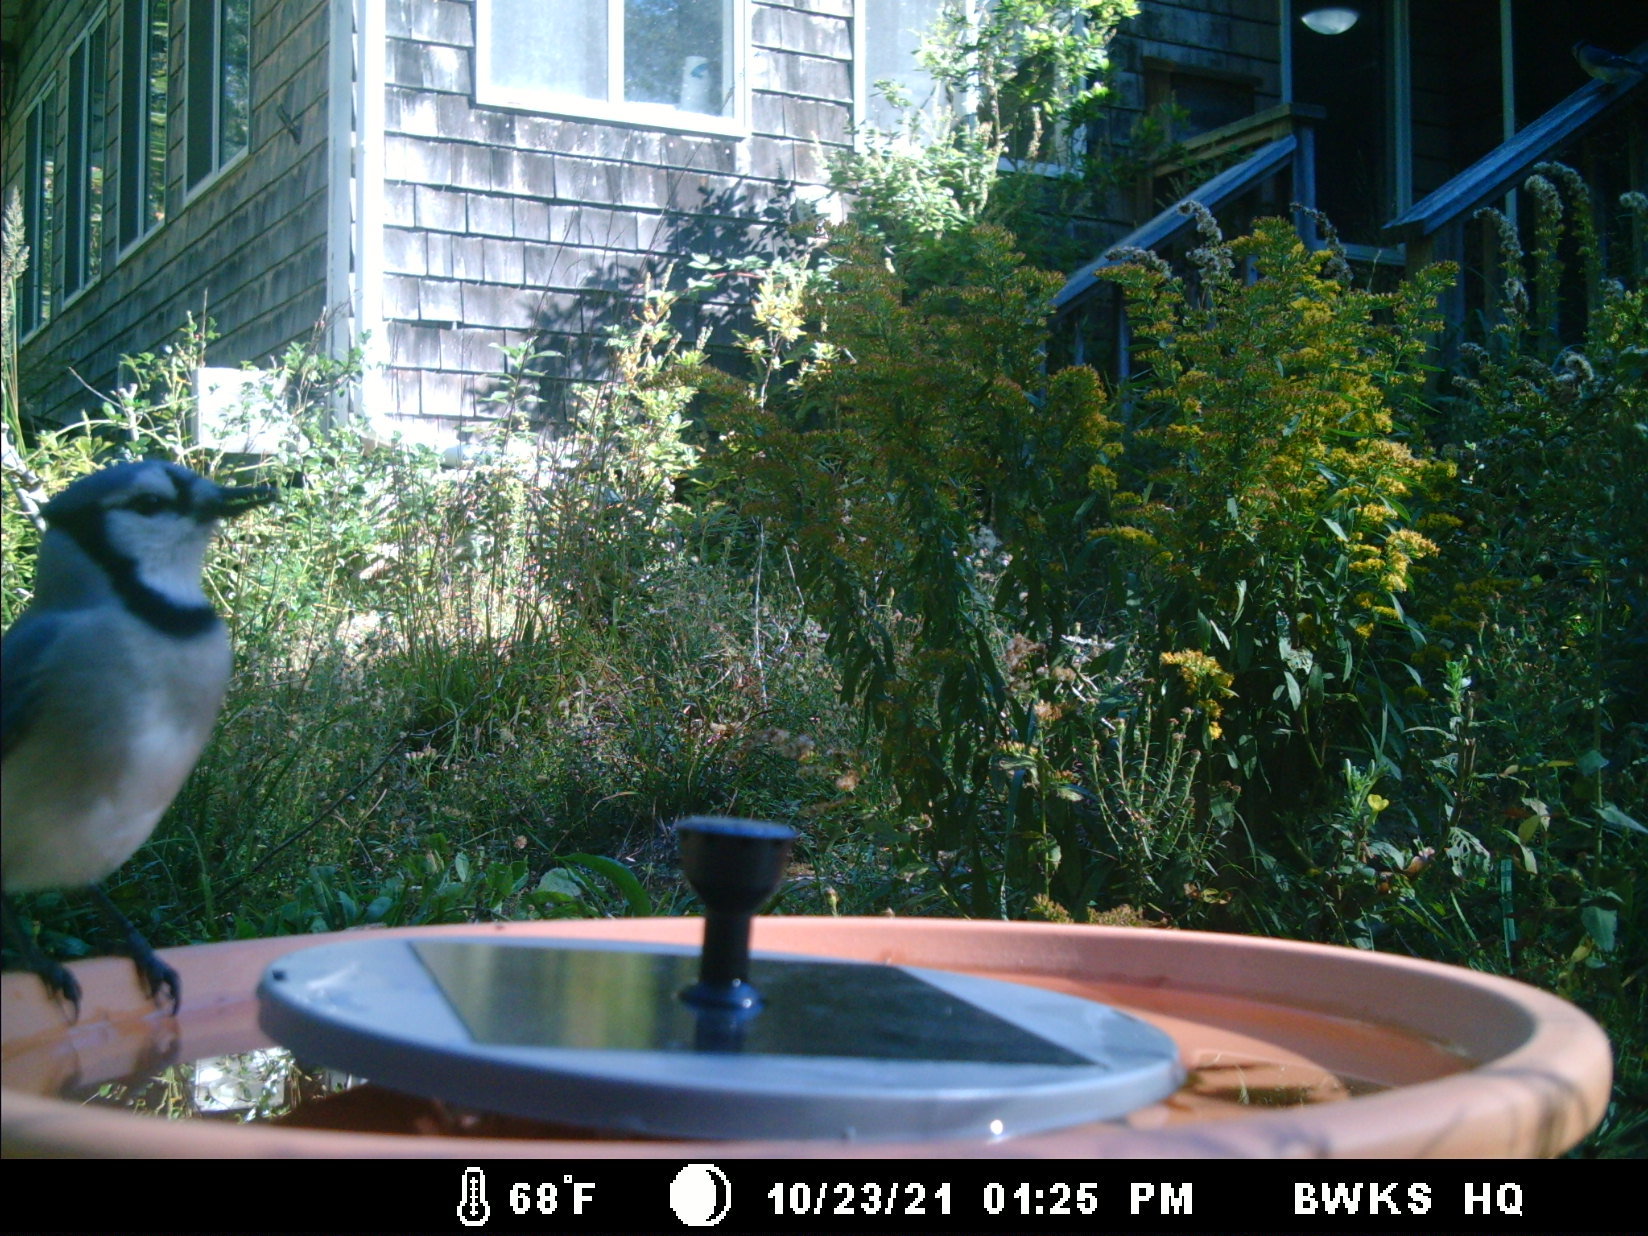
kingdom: Animalia
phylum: Chordata
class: Aves
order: Passeriformes
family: Corvidae
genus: Cyanocitta
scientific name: Cyanocitta cristata
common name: Blue jay
